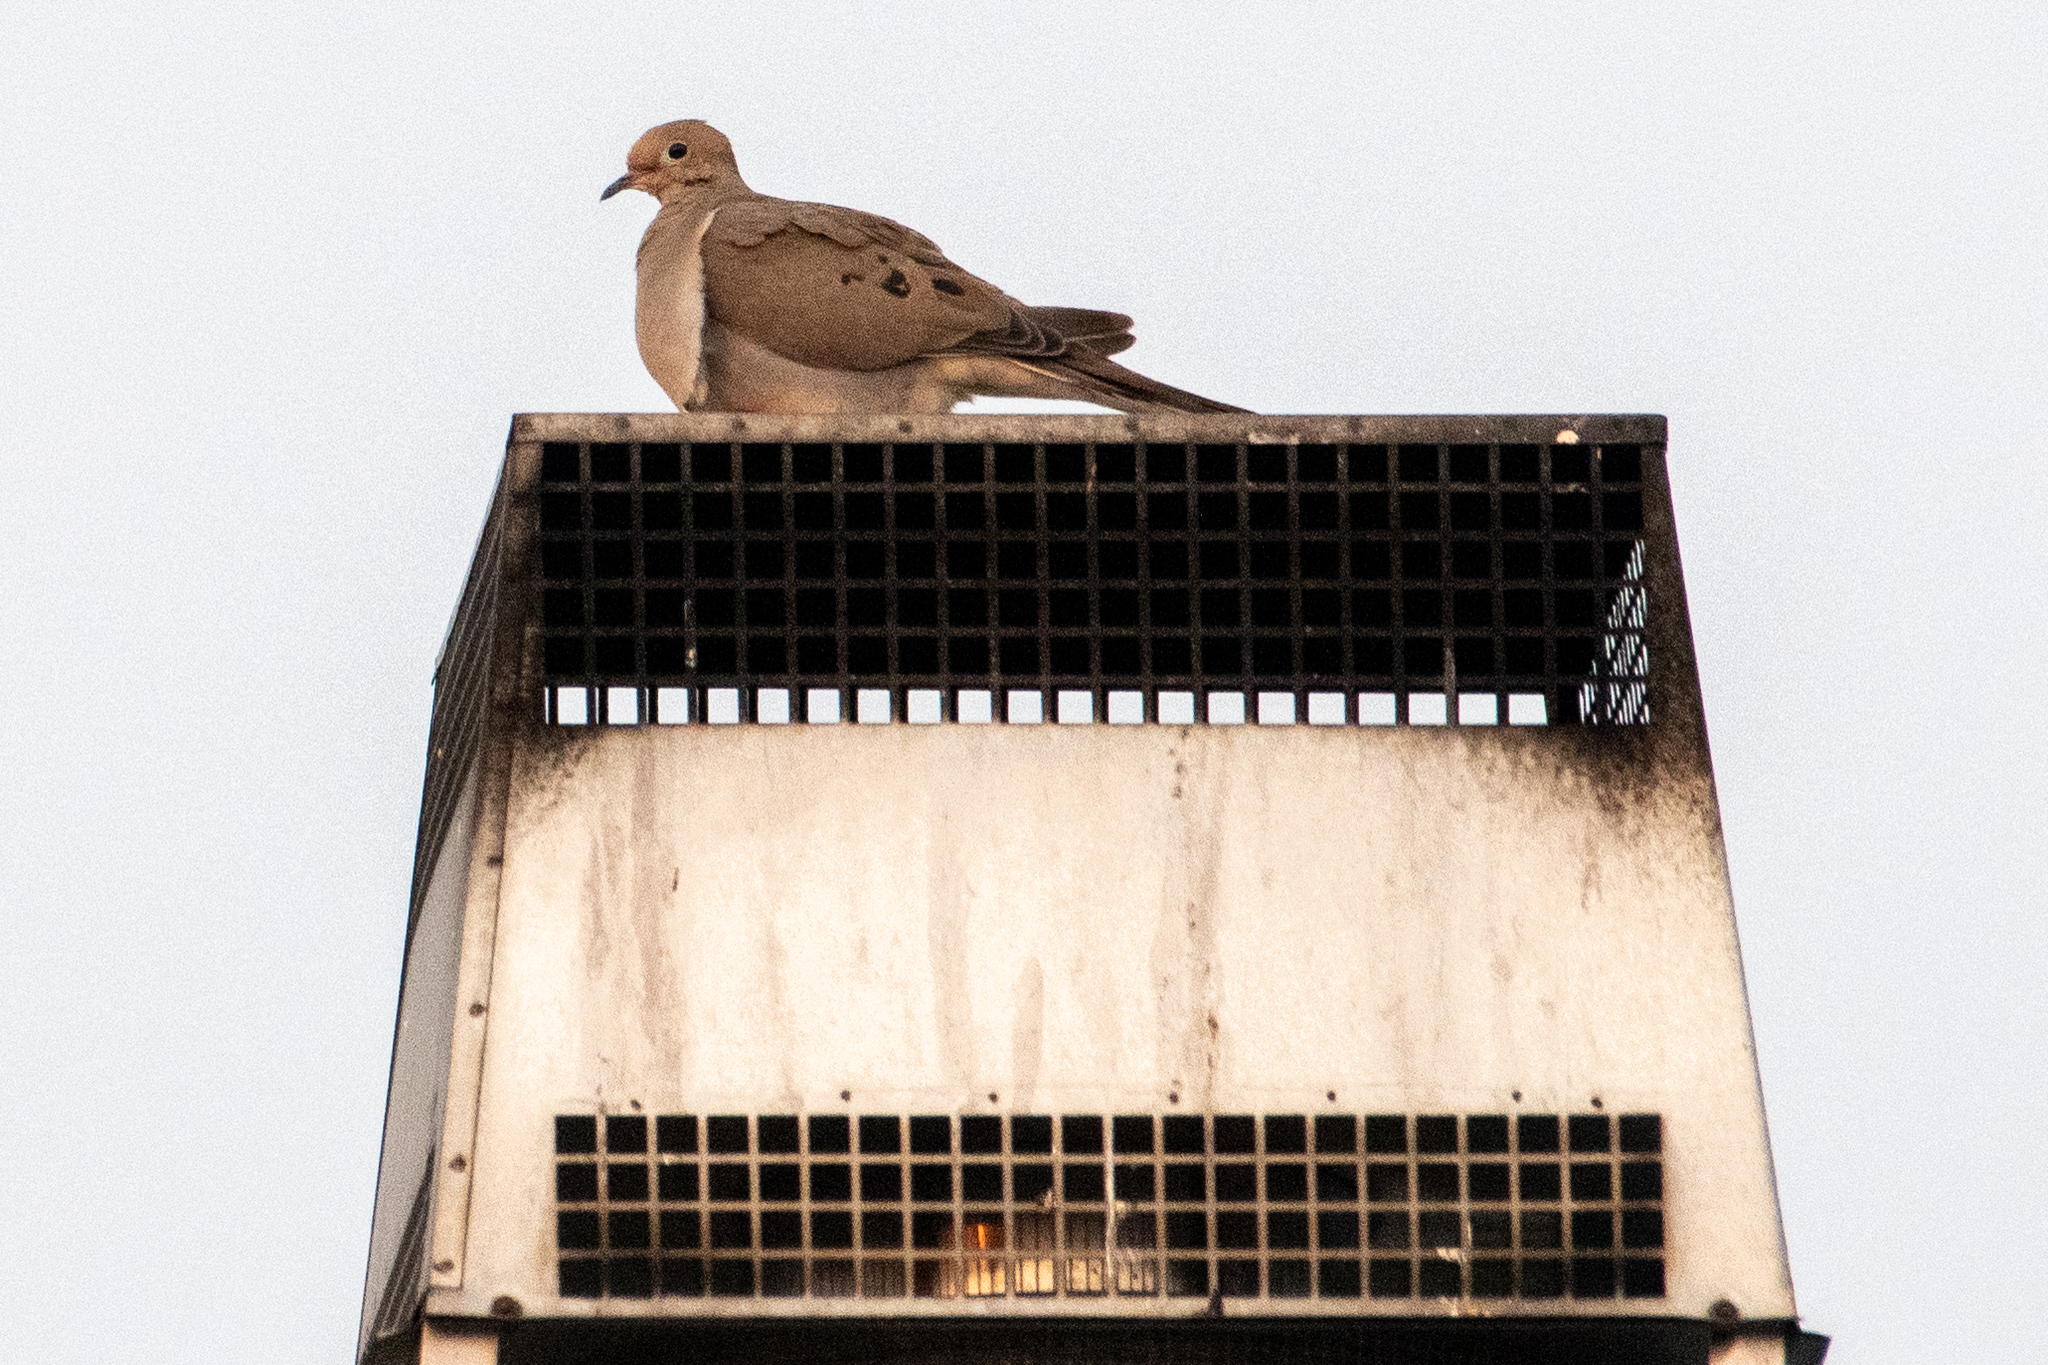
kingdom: Animalia
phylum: Chordata
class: Aves
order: Columbiformes
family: Columbidae
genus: Zenaida
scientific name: Zenaida macroura
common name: Mourning dove
